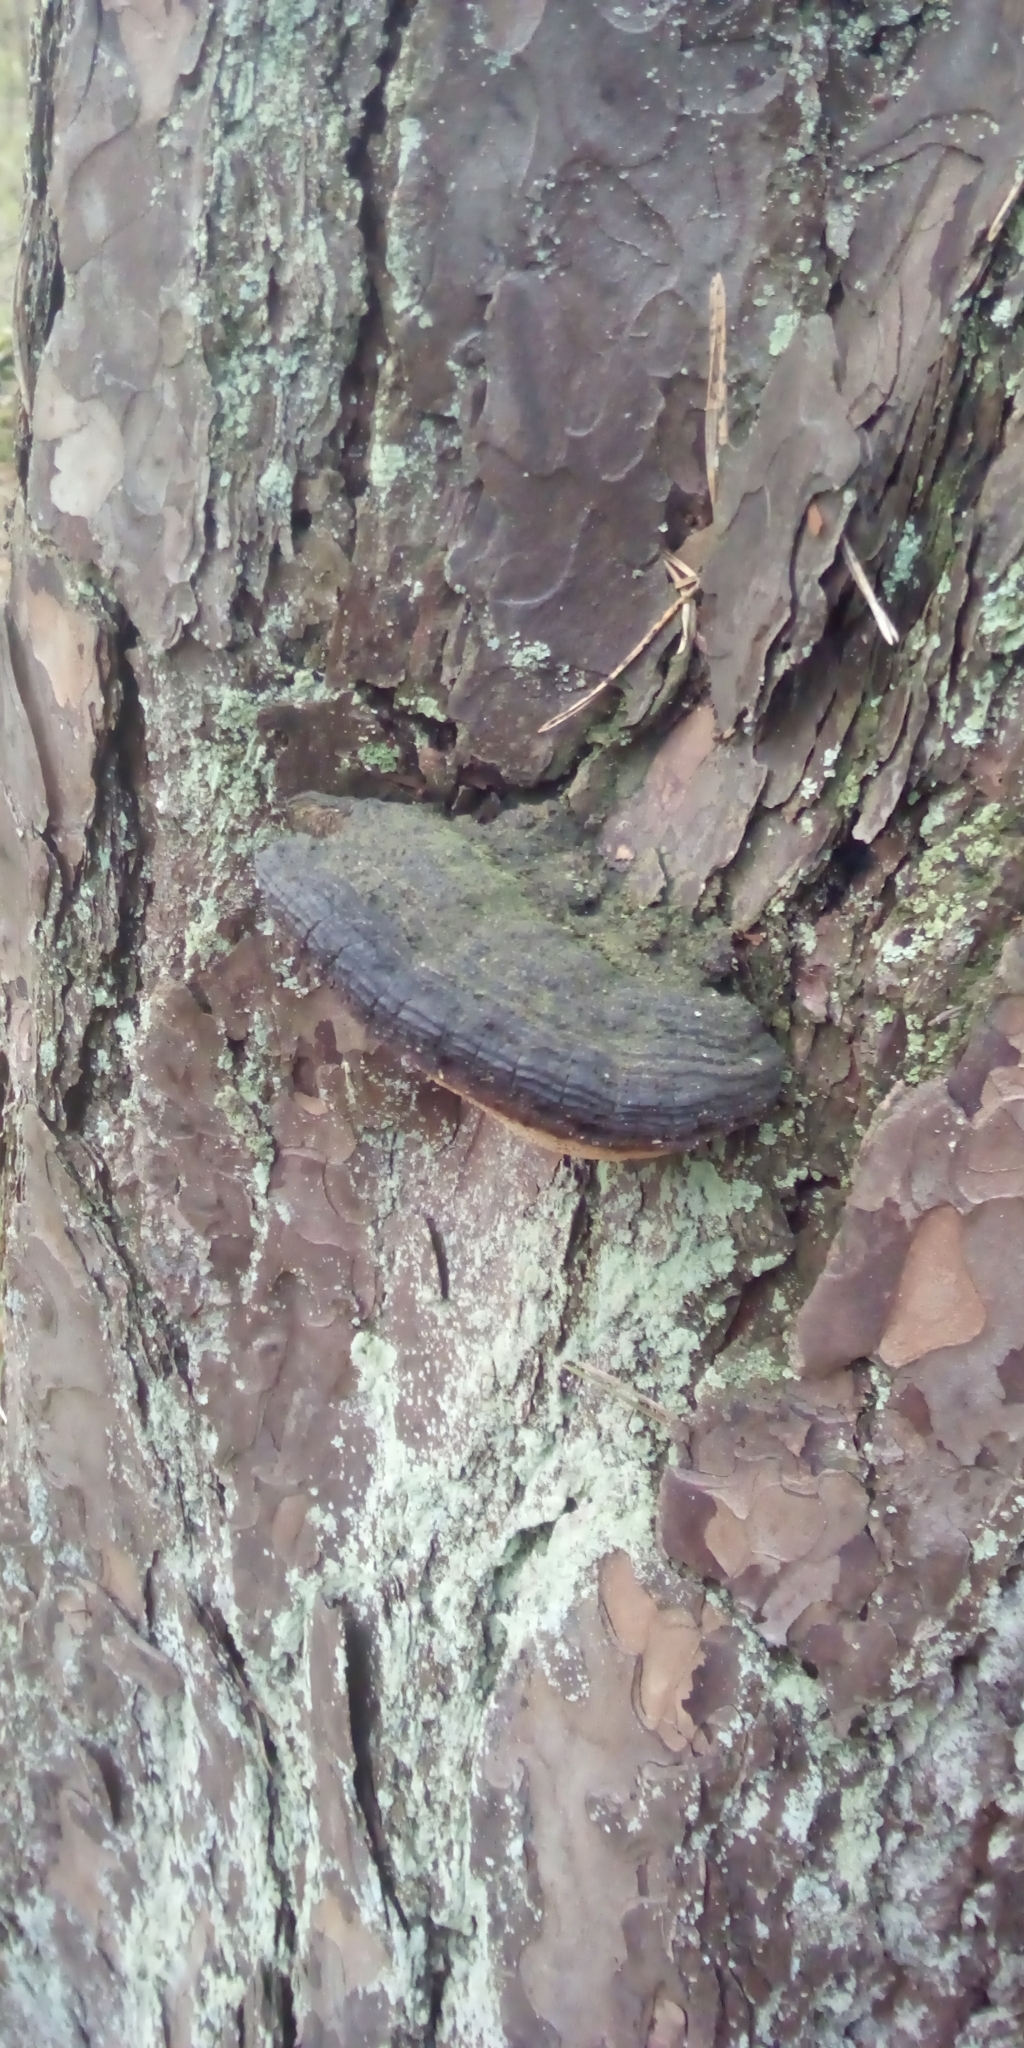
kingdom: Fungi
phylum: Basidiomycota
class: Agaricomycetes
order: Hymenochaetales
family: Hymenochaetaceae
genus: Porodaedalea
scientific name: Porodaedalea pini
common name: Pine bracket
